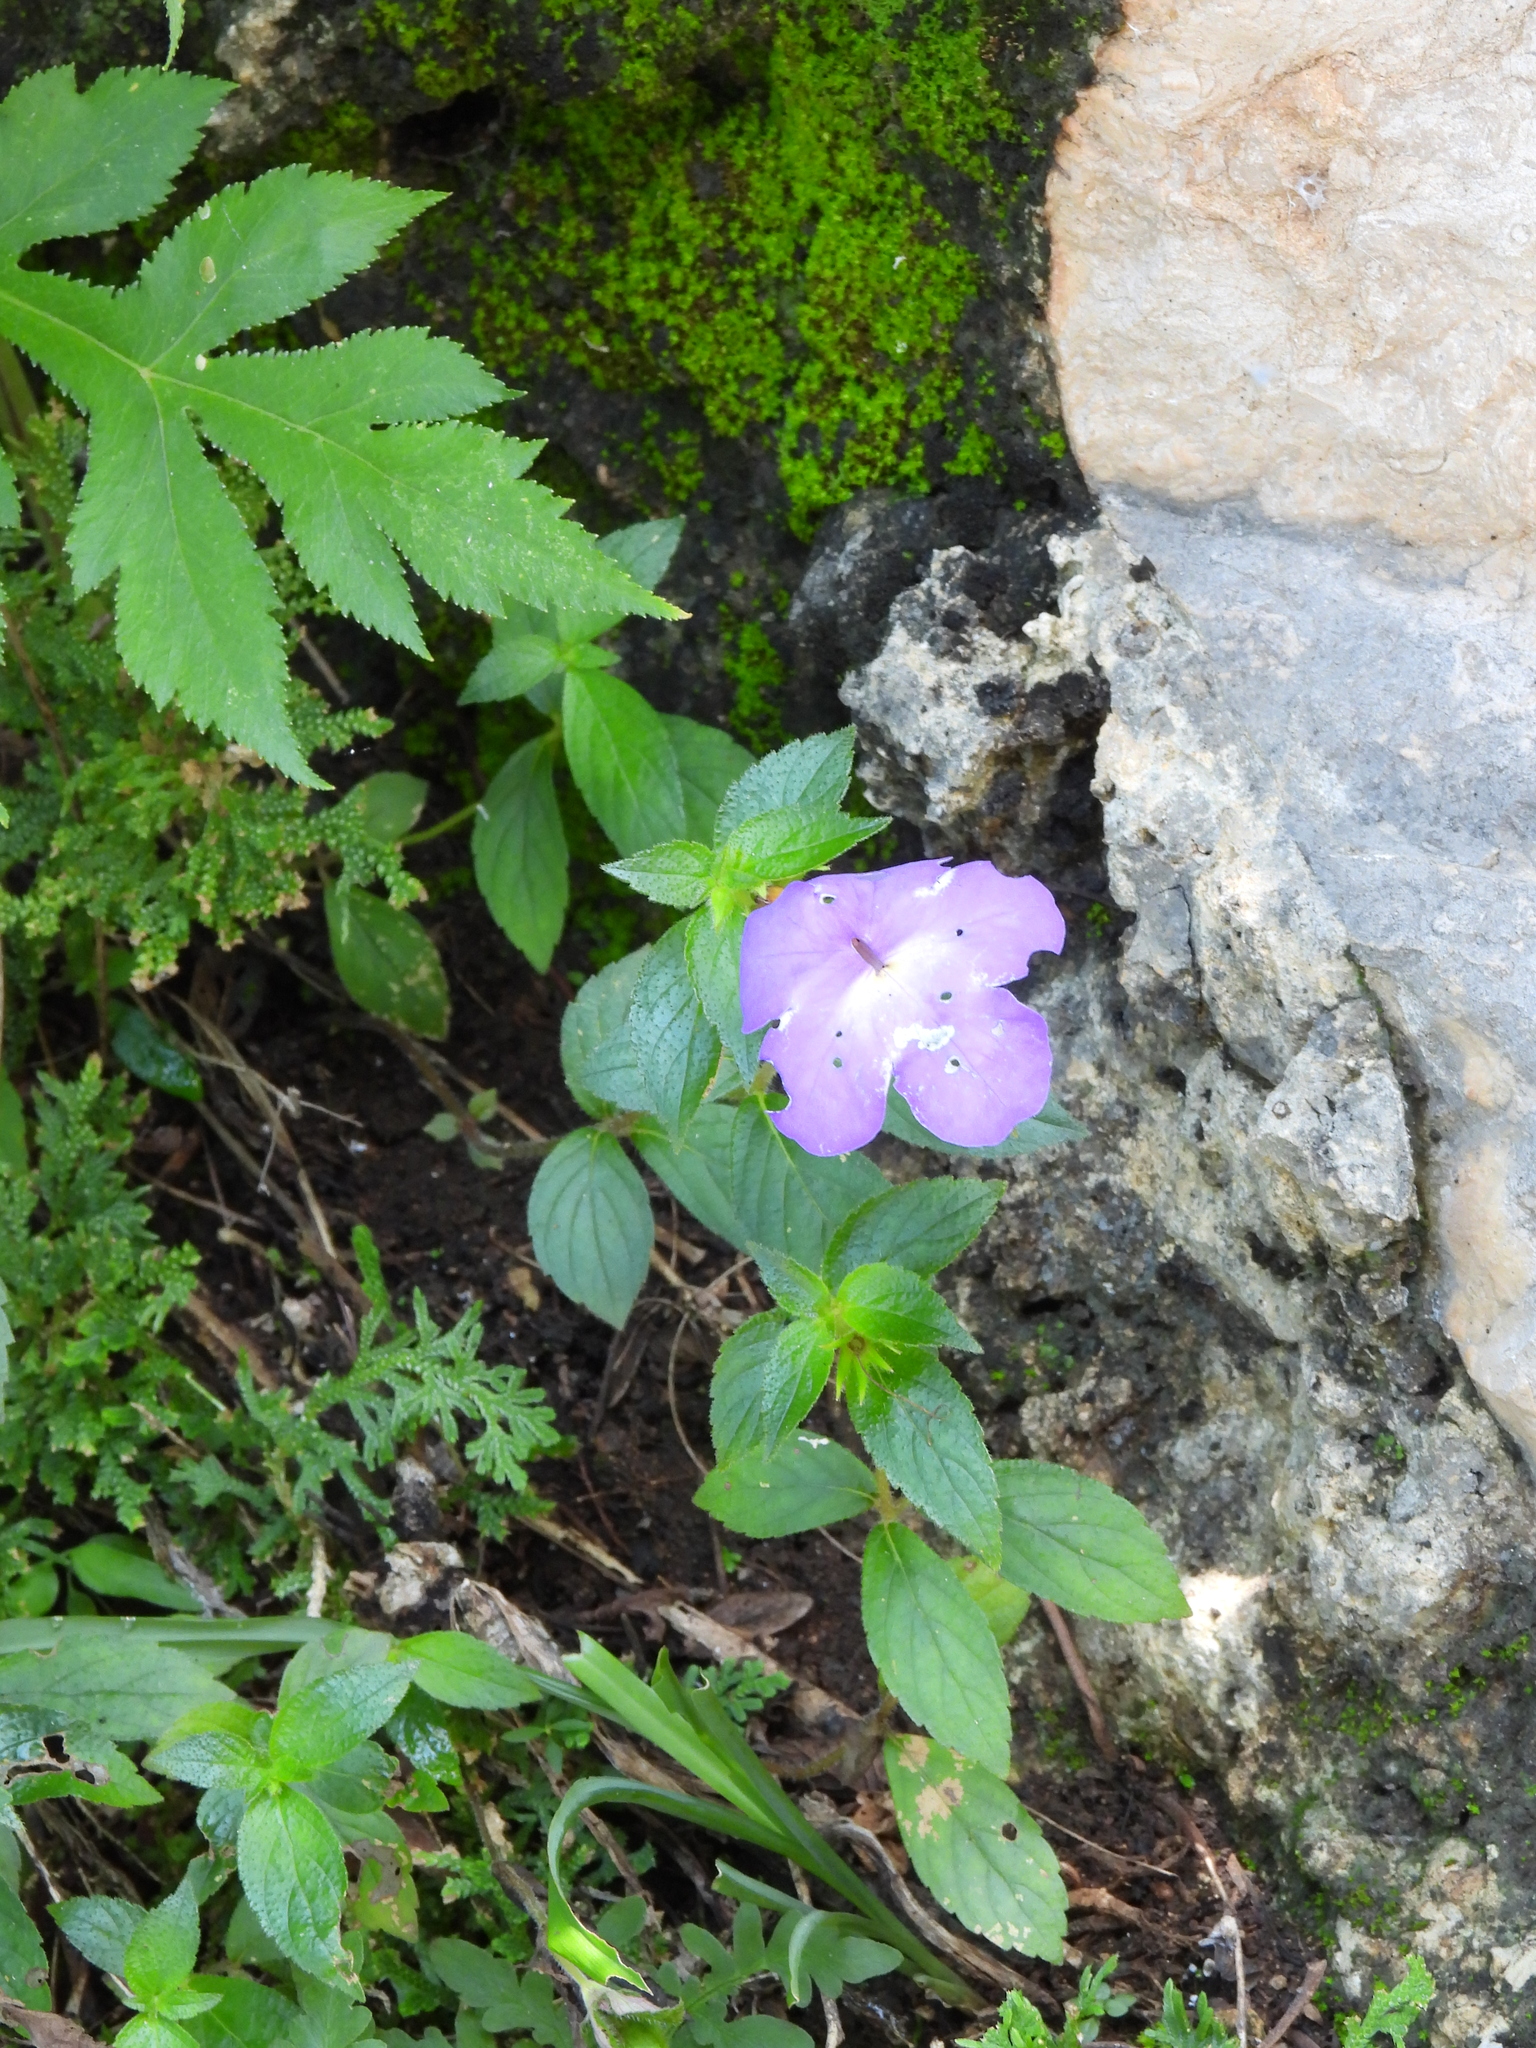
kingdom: Plantae
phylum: Tracheophyta
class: Magnoliopsida
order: Lamiales
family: Gesneriaceae
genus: Achimenes
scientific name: Achimenes longiflora
